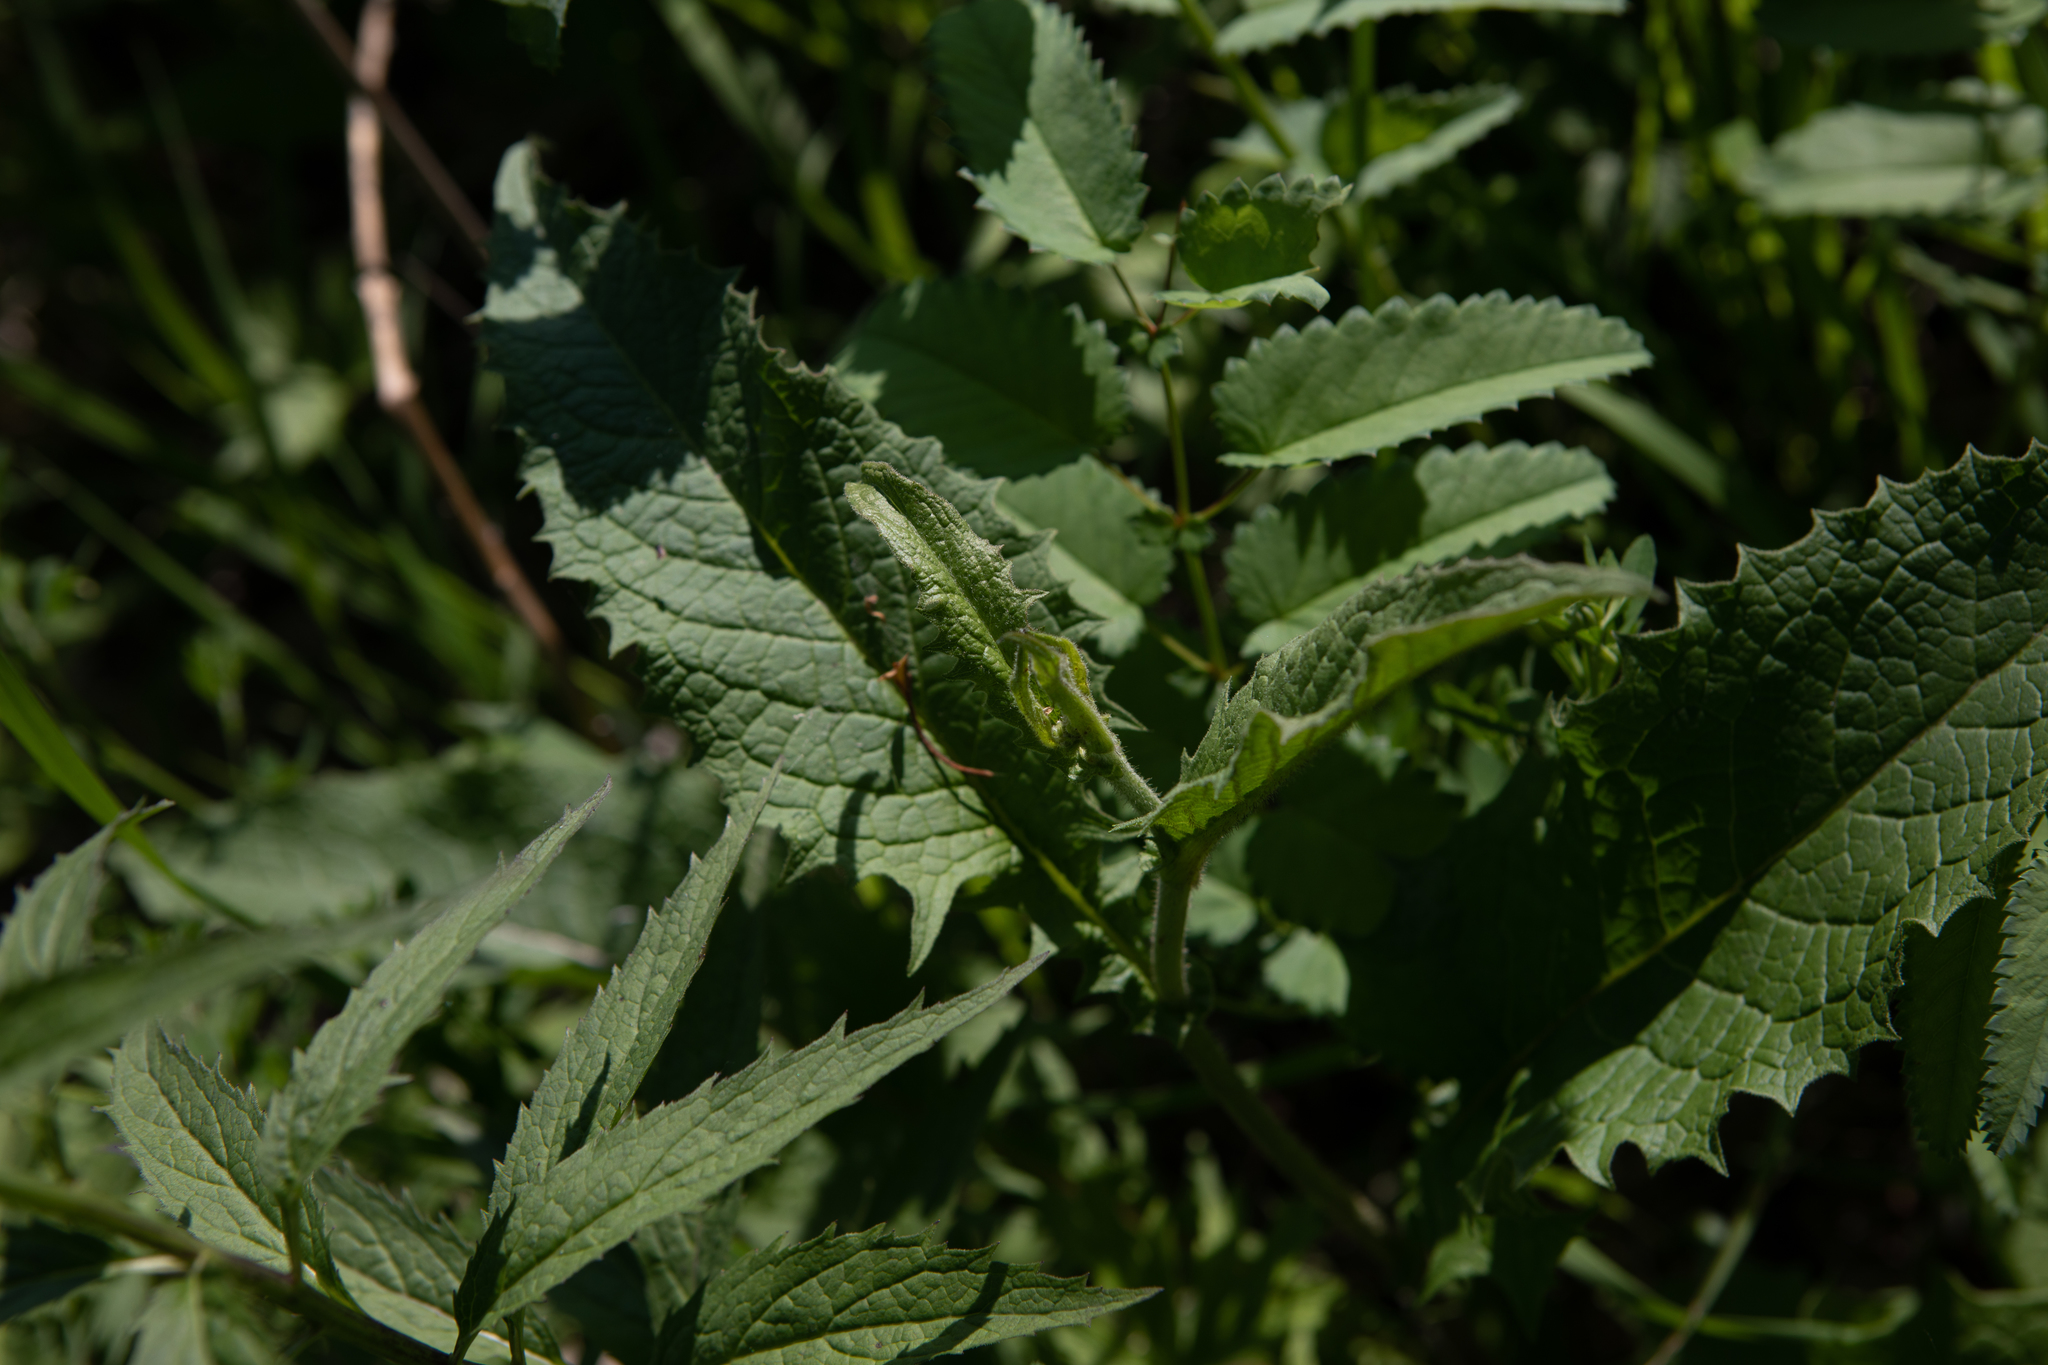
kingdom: Plantae
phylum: Tracheophyta
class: Magnoliopsida
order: Asterales
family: Asteraceae
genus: Crepis
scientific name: Crepis sibirica
